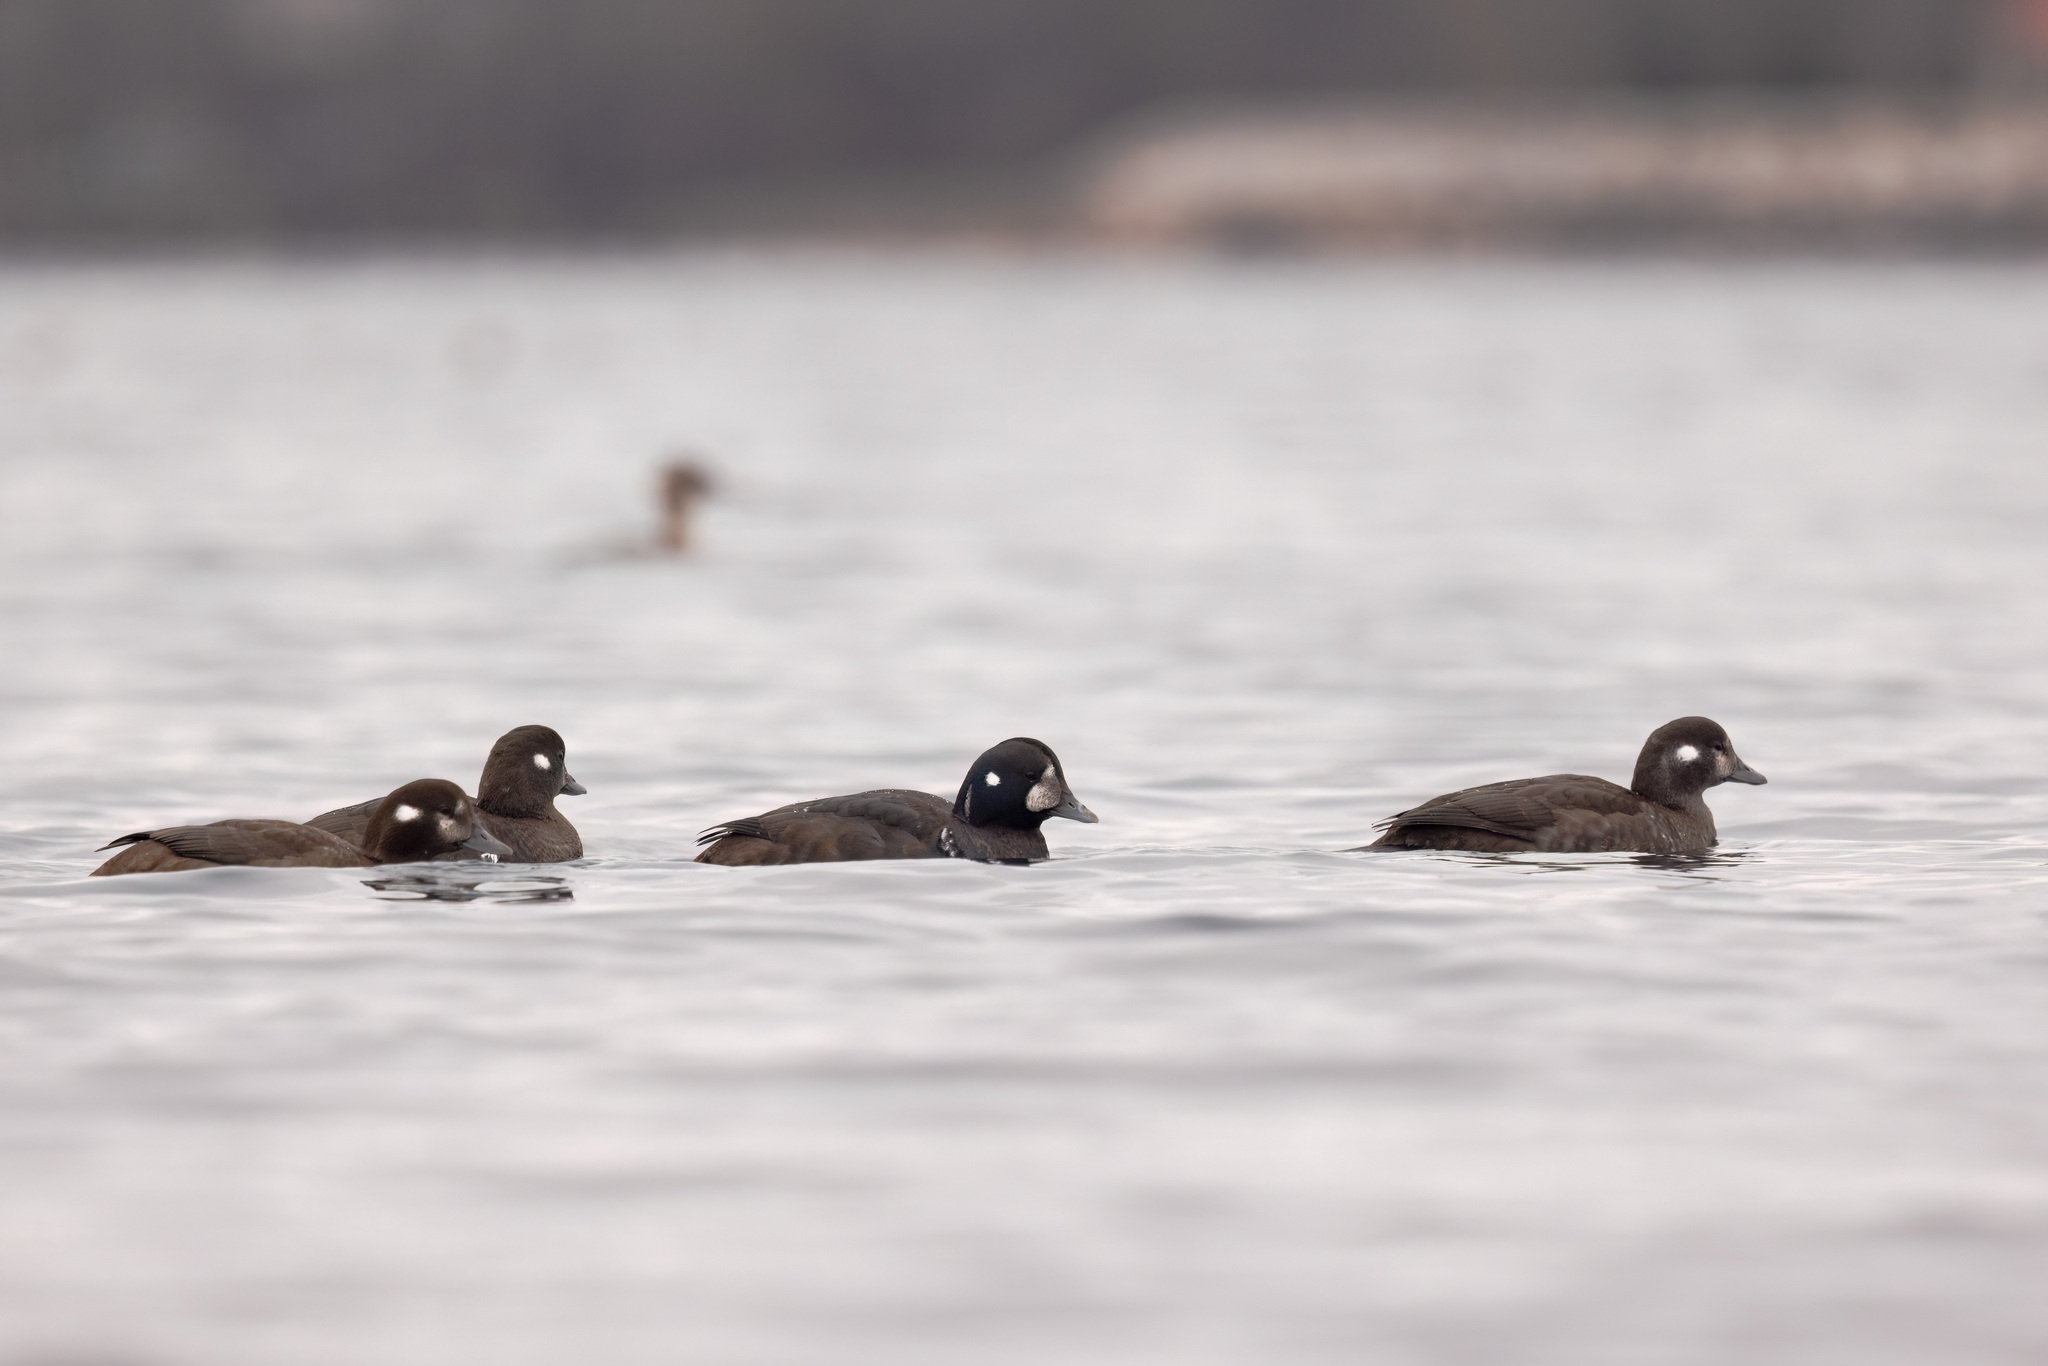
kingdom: Animalia
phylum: Chordata
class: Aves
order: Anseriformes
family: Anatidae
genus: Histrionicus
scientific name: Histrionicus histrionicus
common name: Harlequin duck
